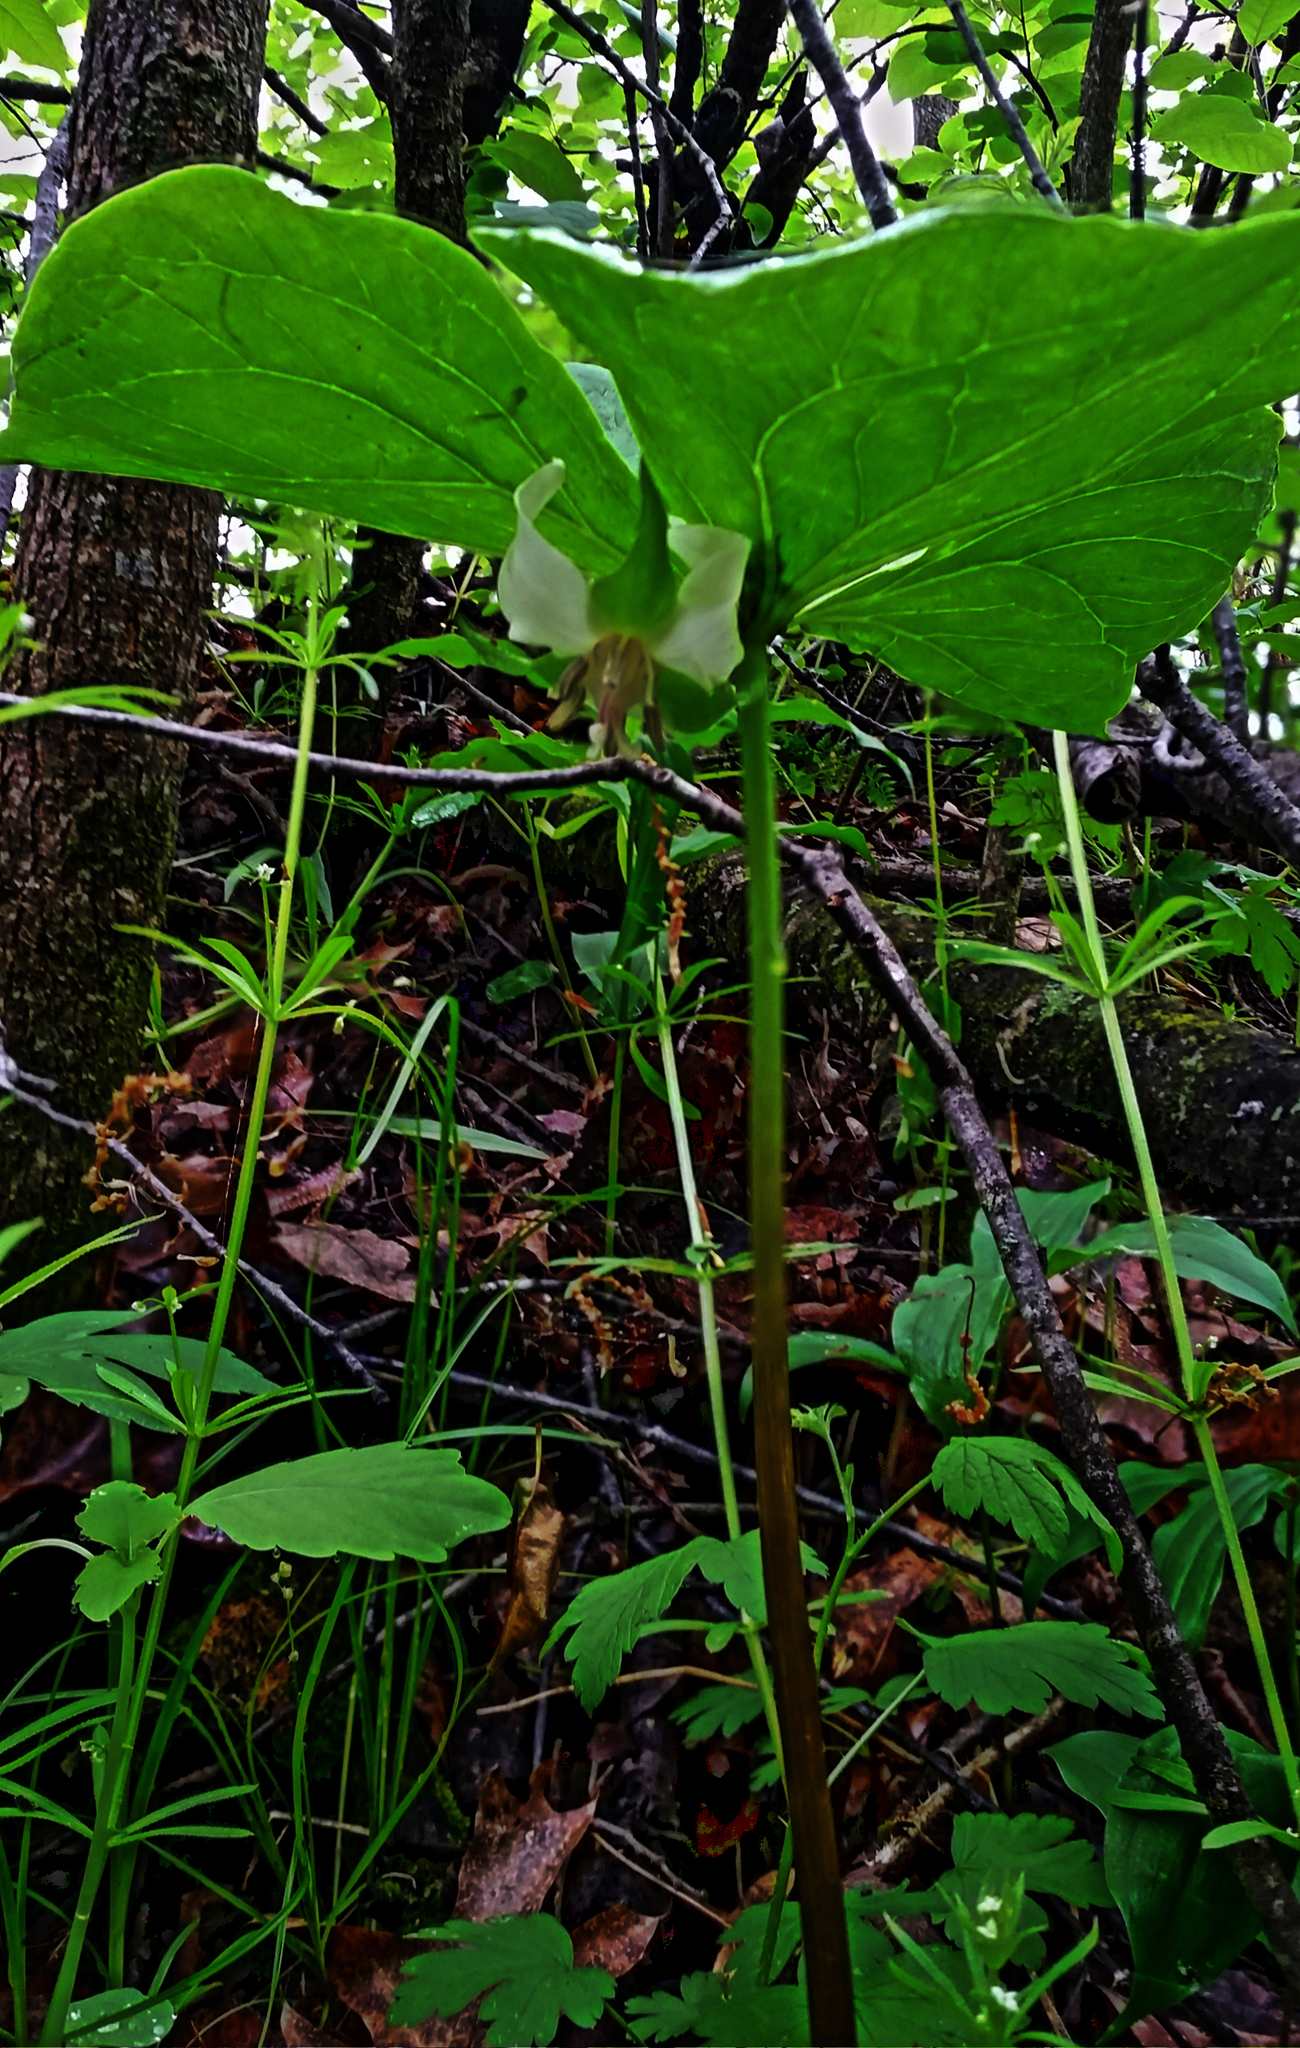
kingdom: Plantae
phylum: Tracheophyta
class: Liliopsida
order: Liliales
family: Melanthiaceae
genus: Trillium
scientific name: Trillium cernuum
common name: Nodding trillium
